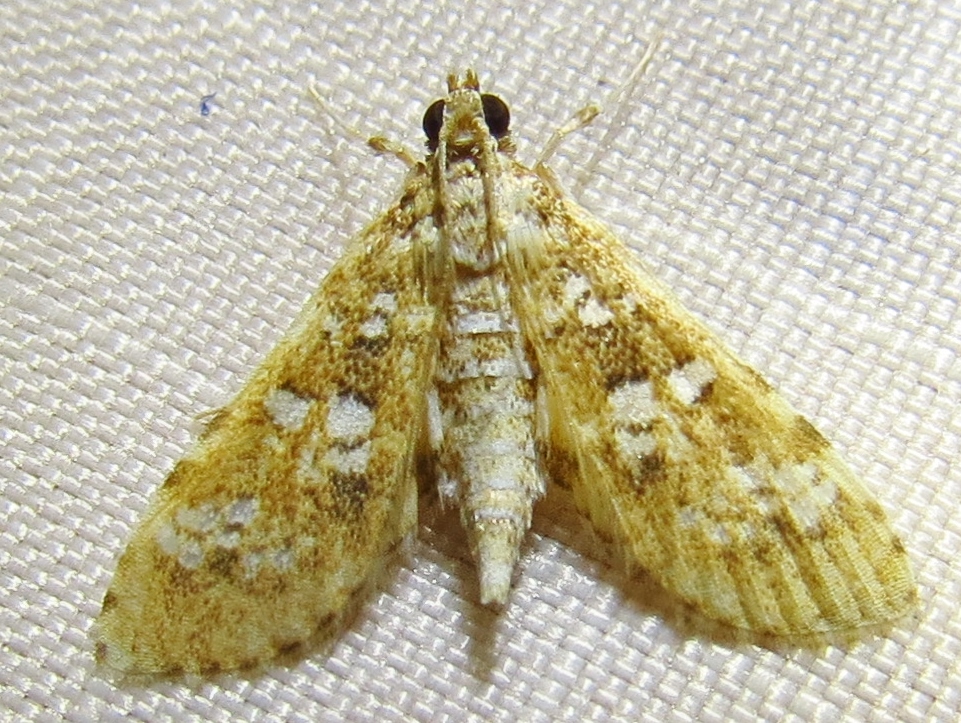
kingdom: Animalia
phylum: Arthropoda
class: Insecta
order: Lepidoptera
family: Crambidae
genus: Samea
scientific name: Samea multiplicalis
